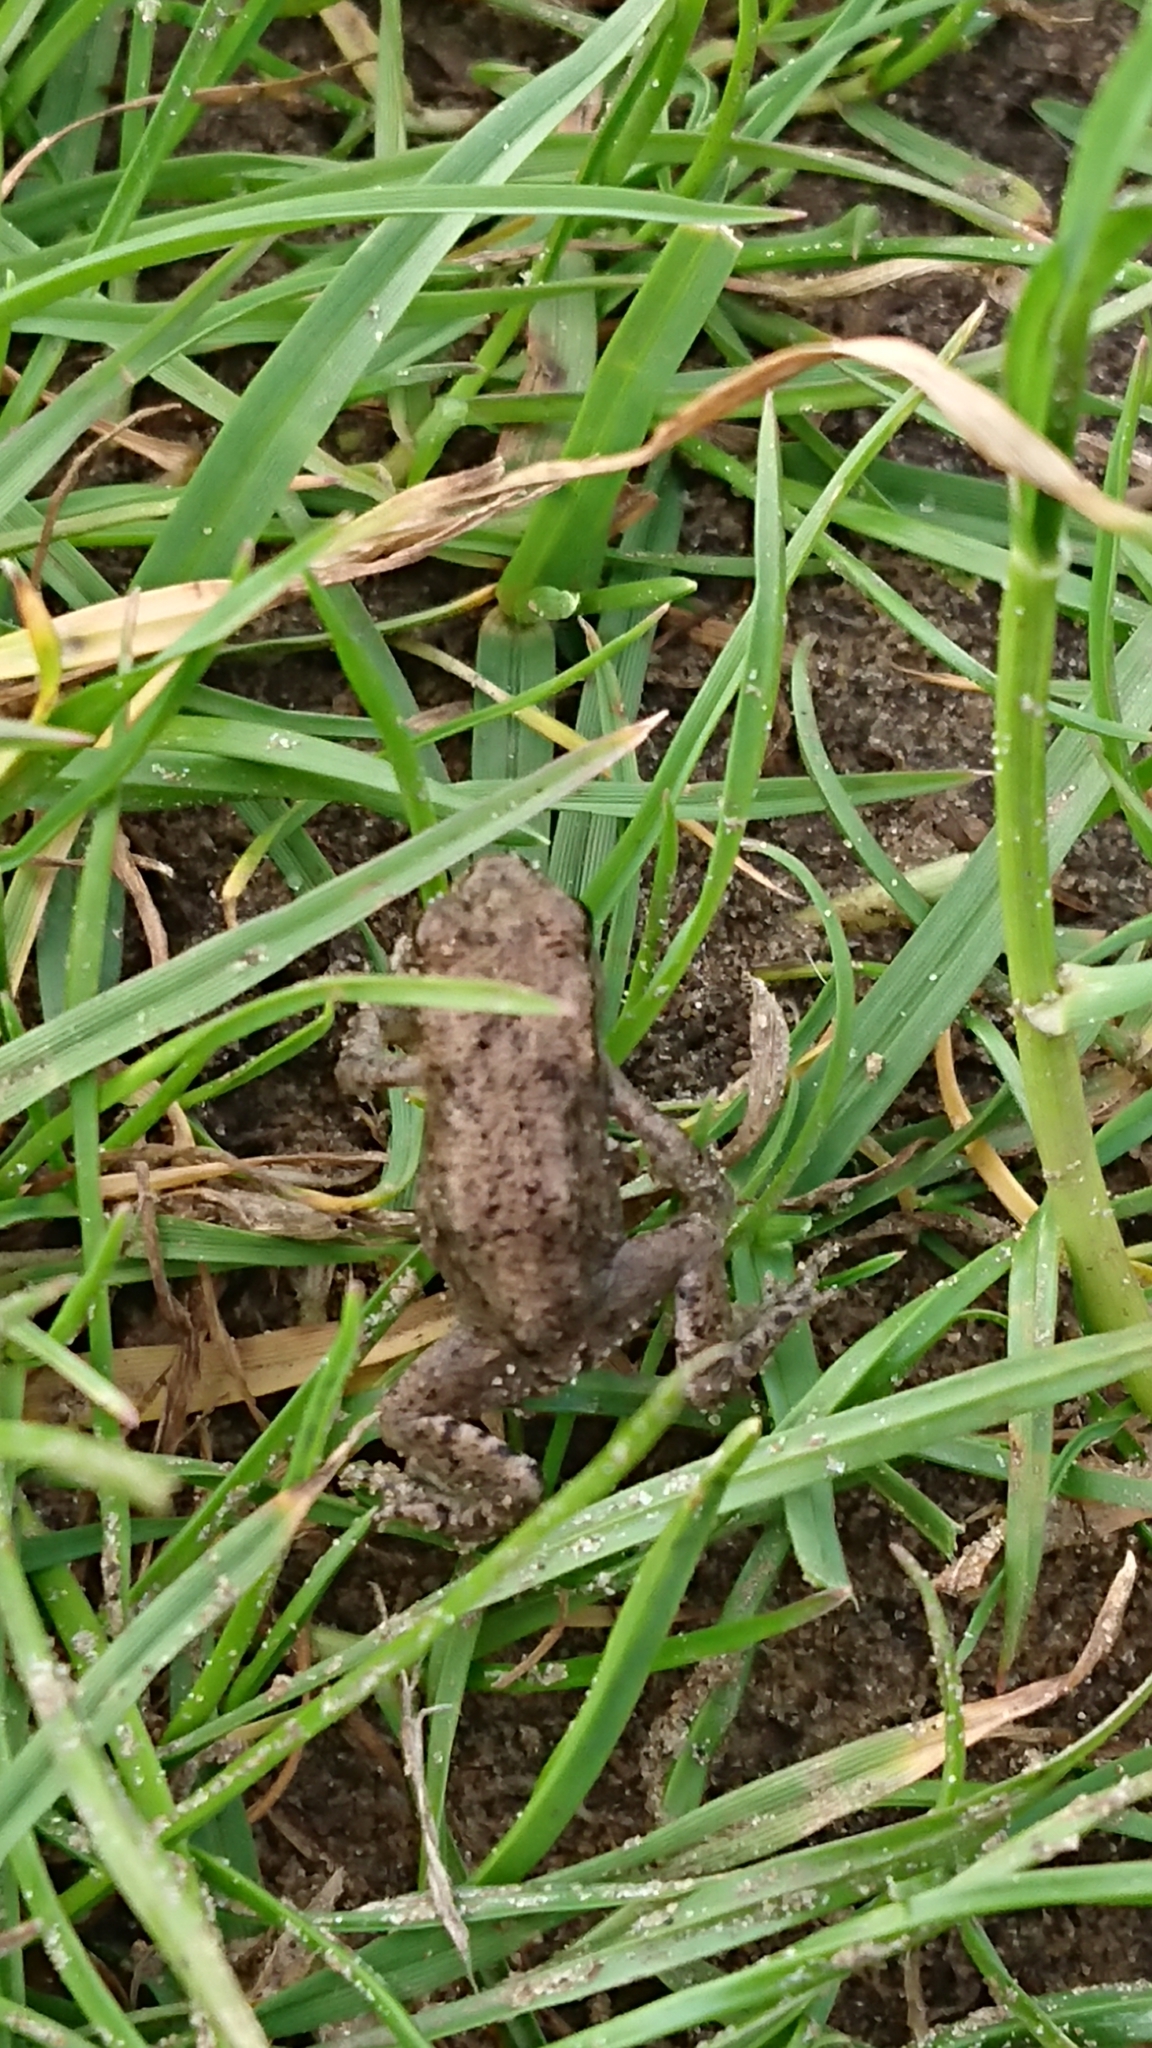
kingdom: Animalia
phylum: Chordata
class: Amphibia
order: Anura
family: Bufonidae
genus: Bufo
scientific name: Bufo bufo
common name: Common toad
